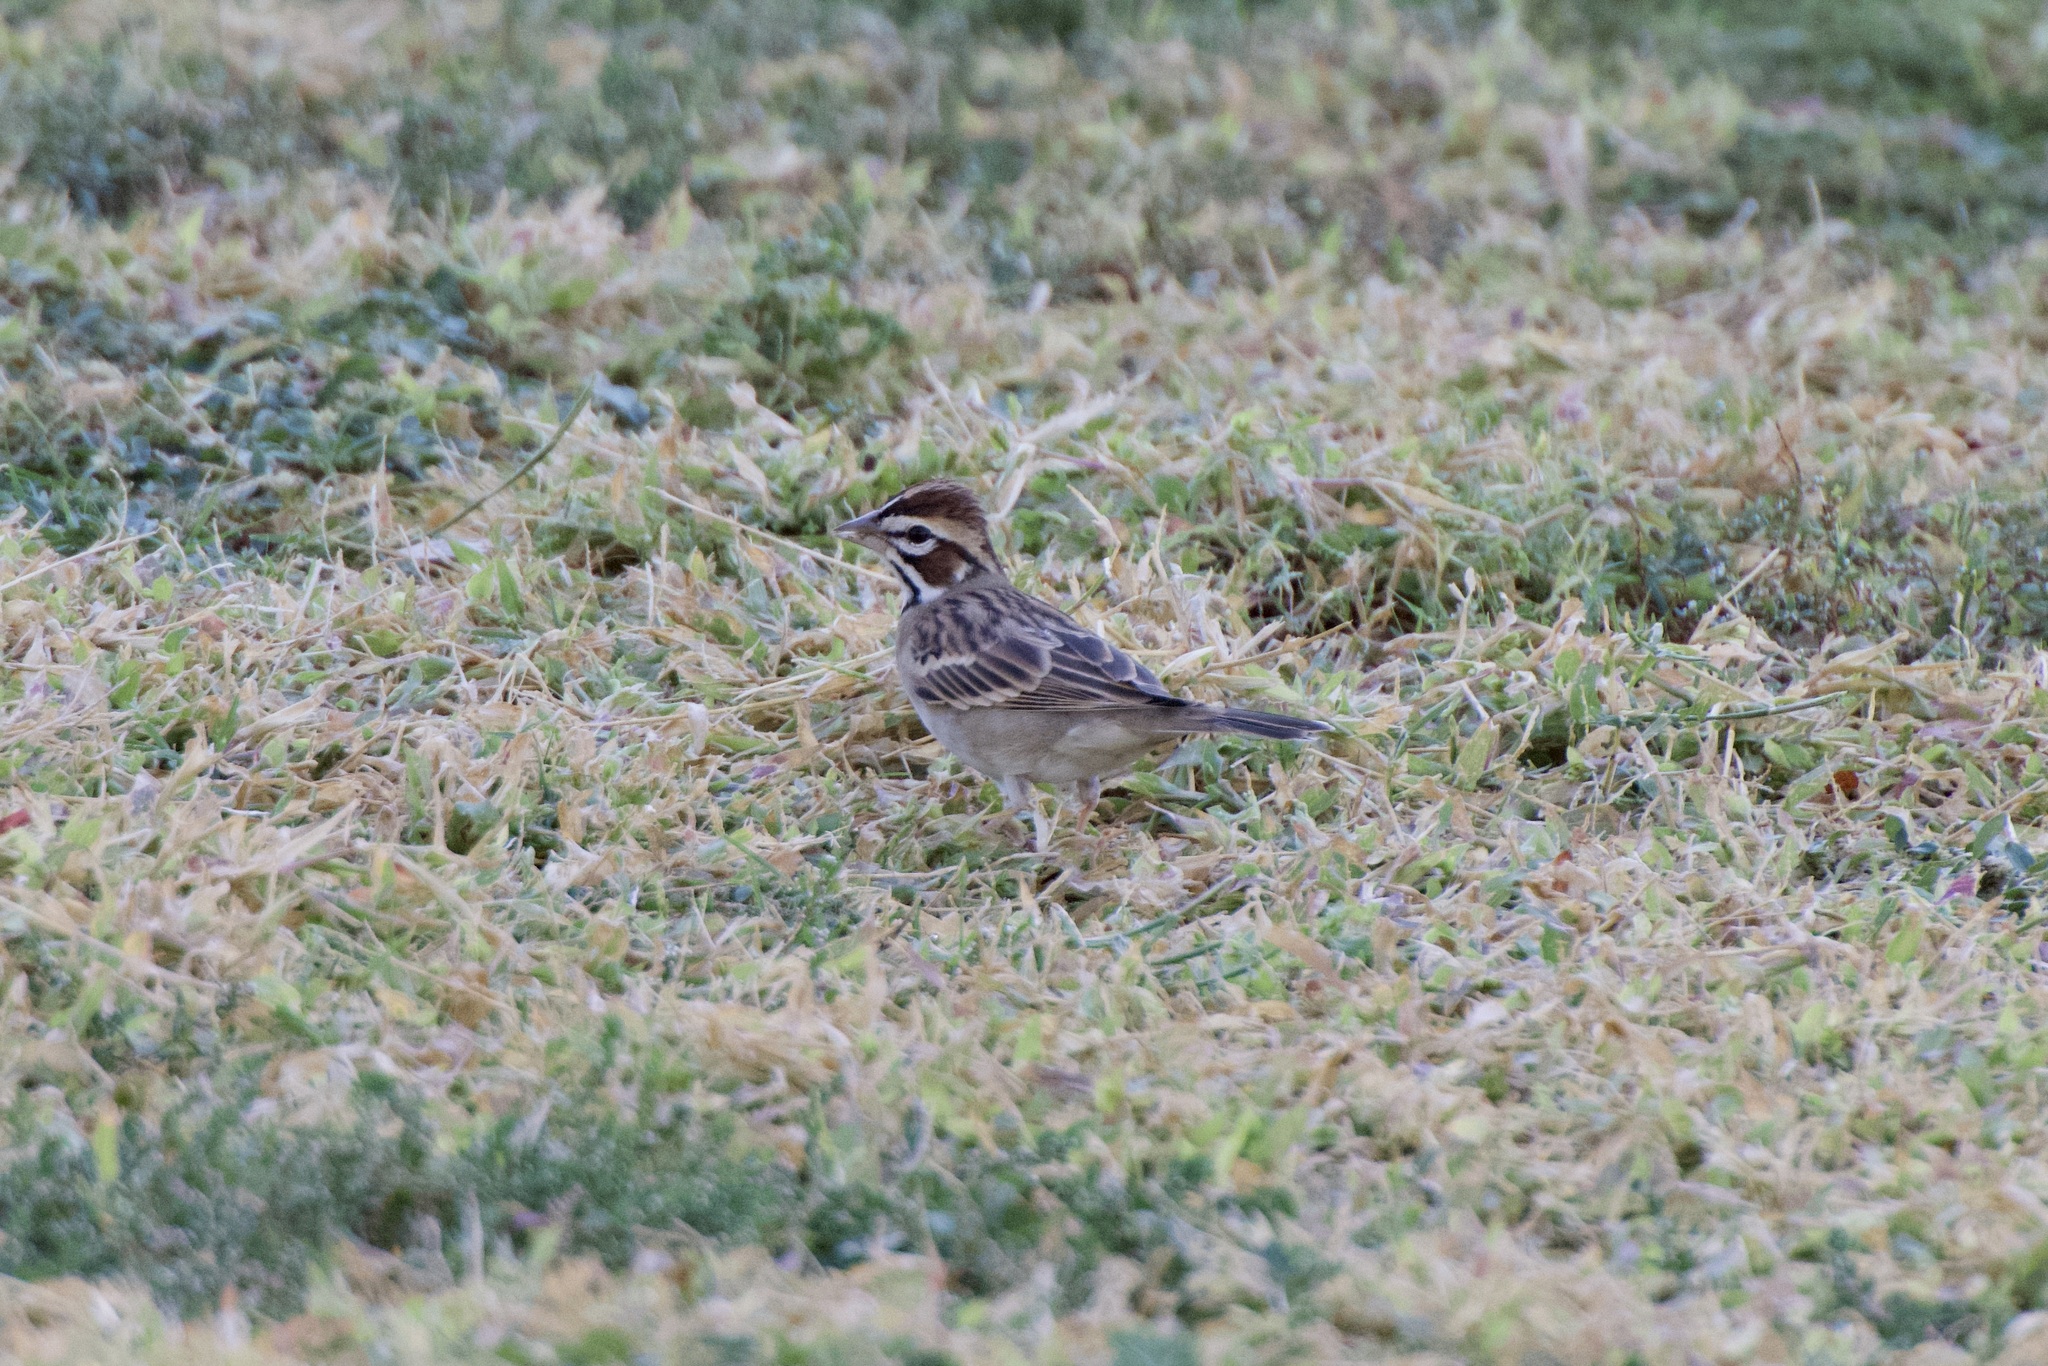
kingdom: Animalia
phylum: Chordata
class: Aves
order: Passeriformes
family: Passerellidae
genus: Chondestes
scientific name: Chondestes grammacus
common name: Lark sparrow
